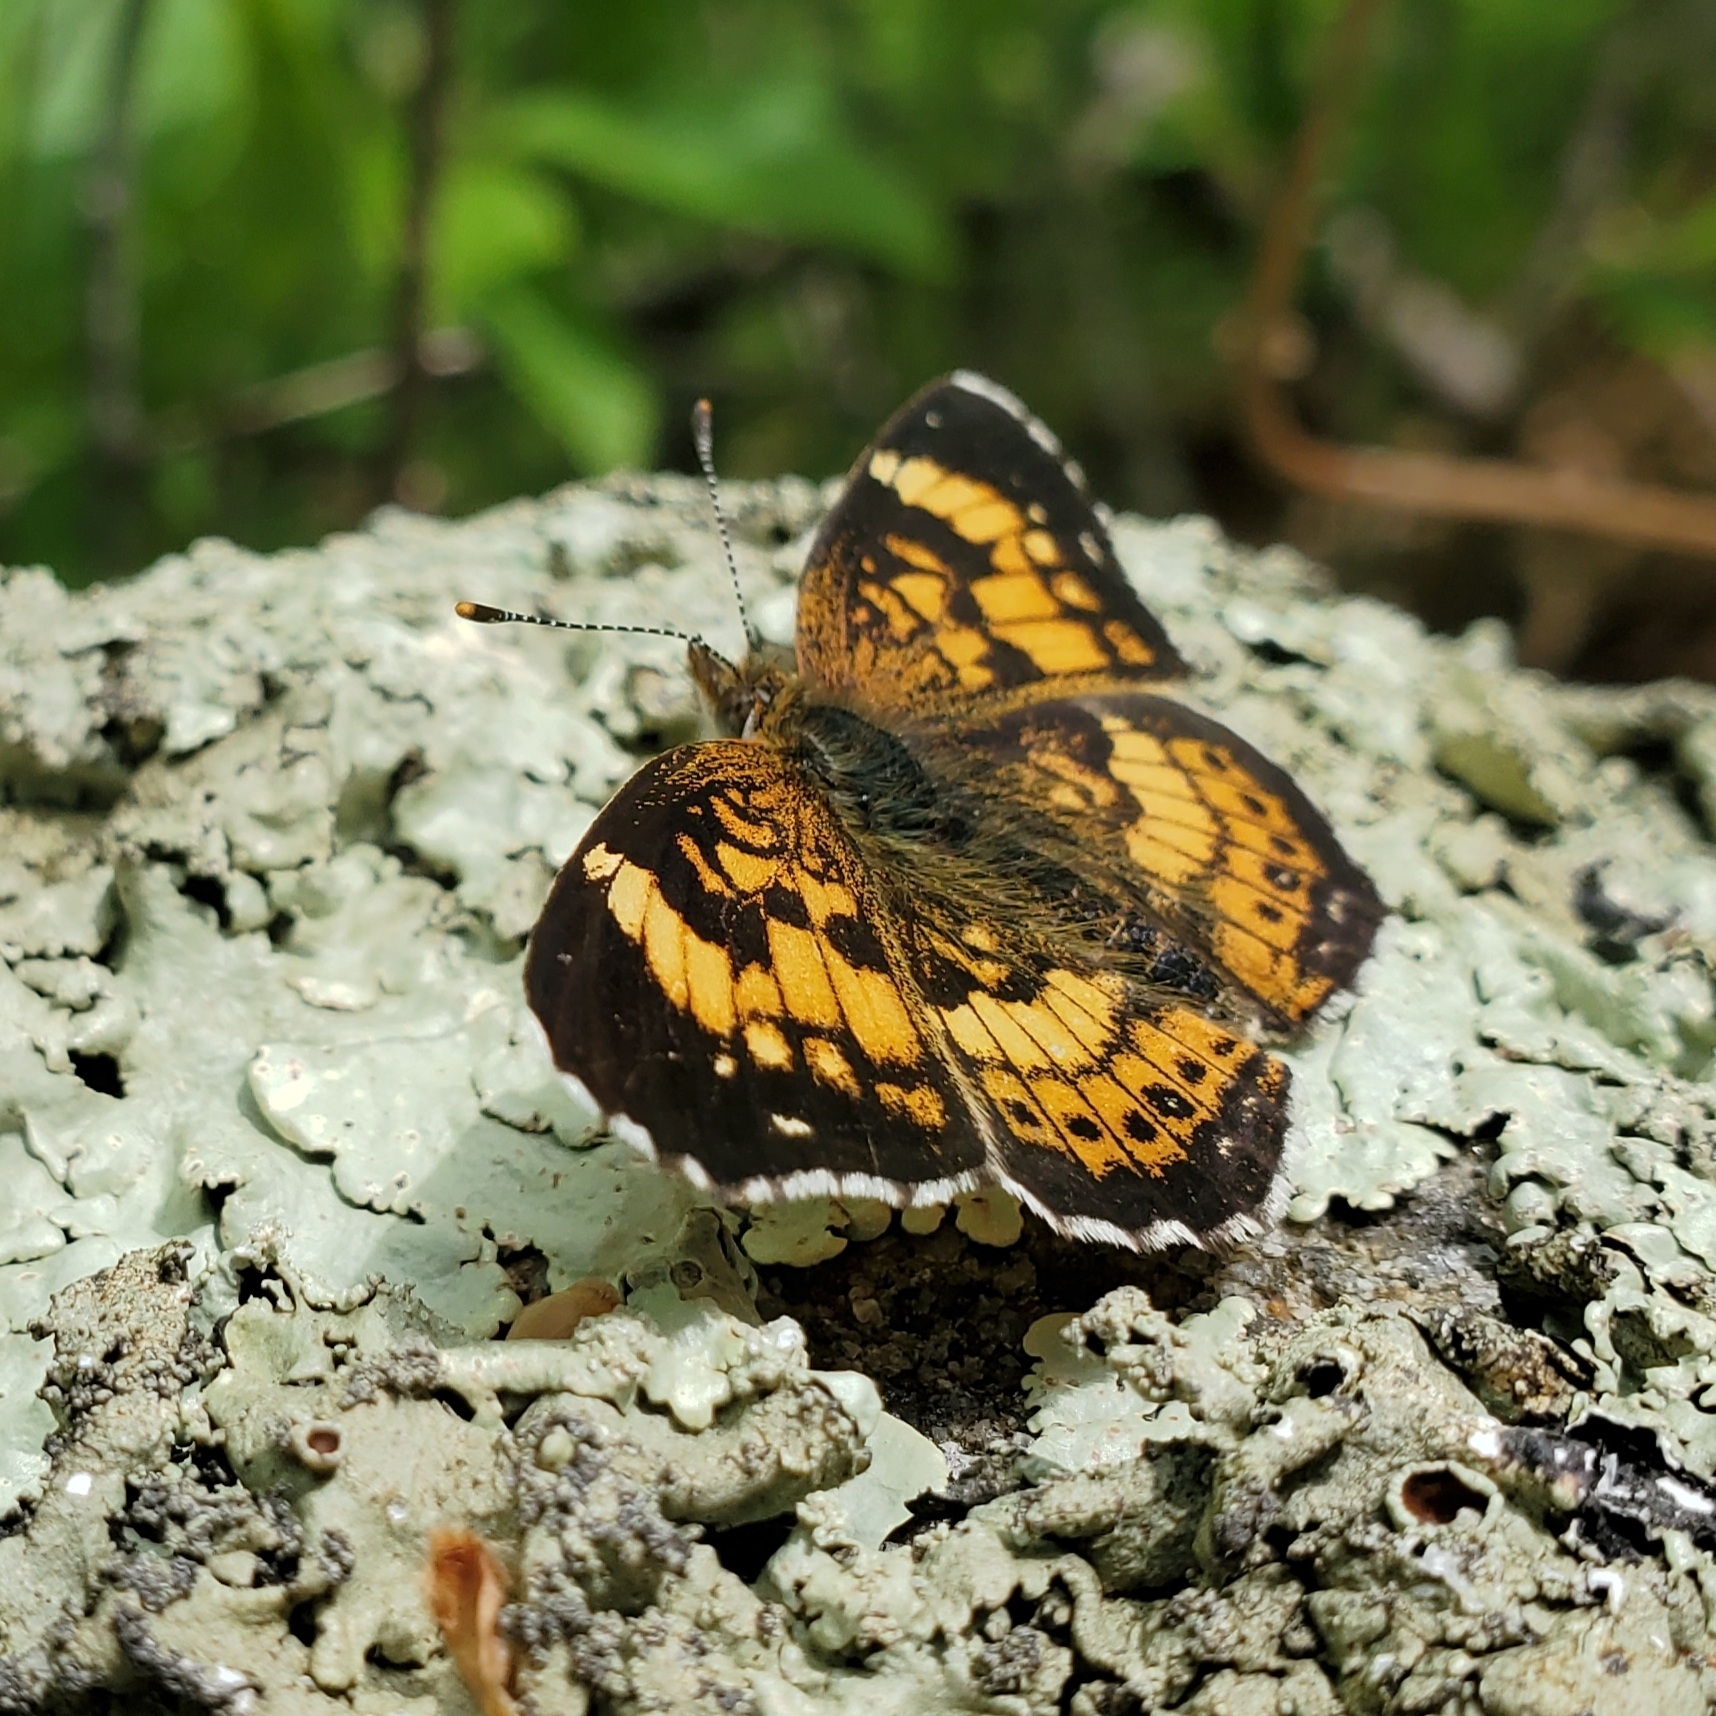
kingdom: Animalia
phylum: Arthropoda
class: Insecta
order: Lepidoptera
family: Nymphalidae
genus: Chlosyne
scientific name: Chlosyne nycteis
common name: Silvery checkerspot
